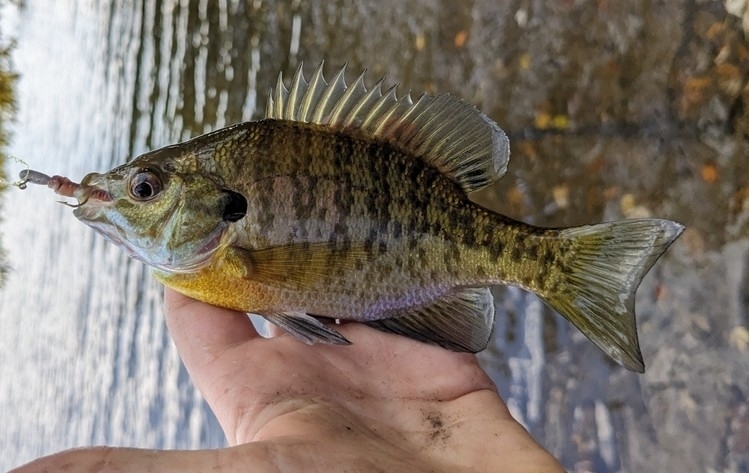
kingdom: Animalia
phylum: Chordata
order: Perciformes
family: Centrarchidae
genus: Lepomis
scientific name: Lepomis macrochirus
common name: Bluegill
